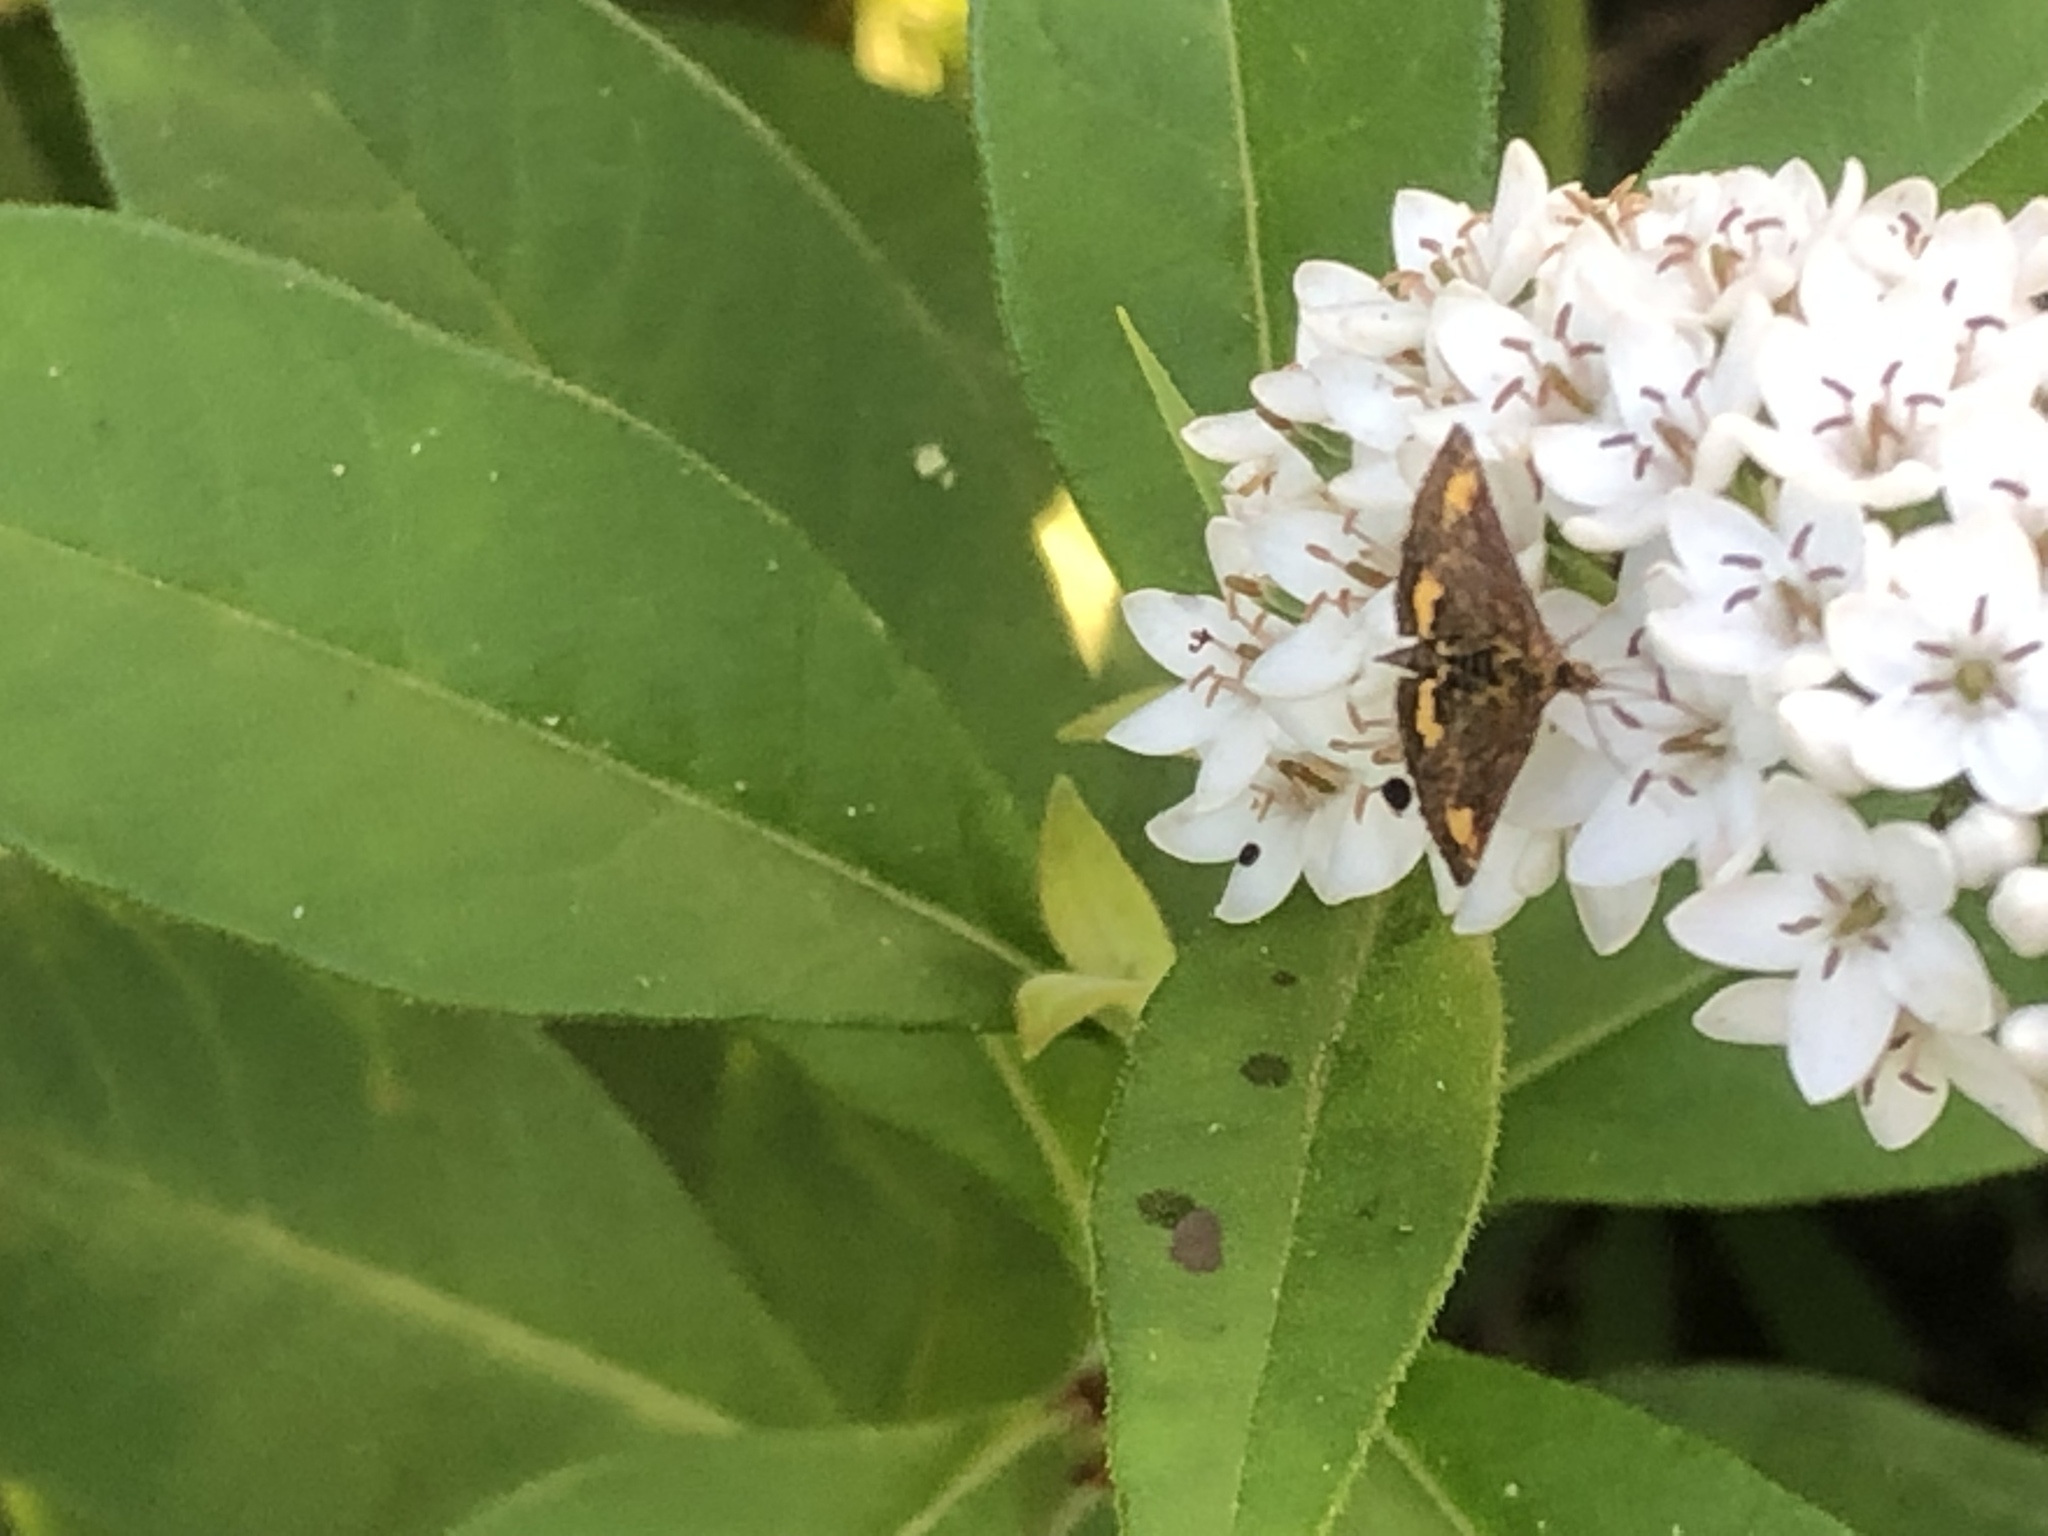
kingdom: Animalia
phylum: Arthropoda
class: Insecta
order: Lepidoptera
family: Crambidae
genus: Pyrausta
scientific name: Pyrausta orphisalis
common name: Orange mint moth
